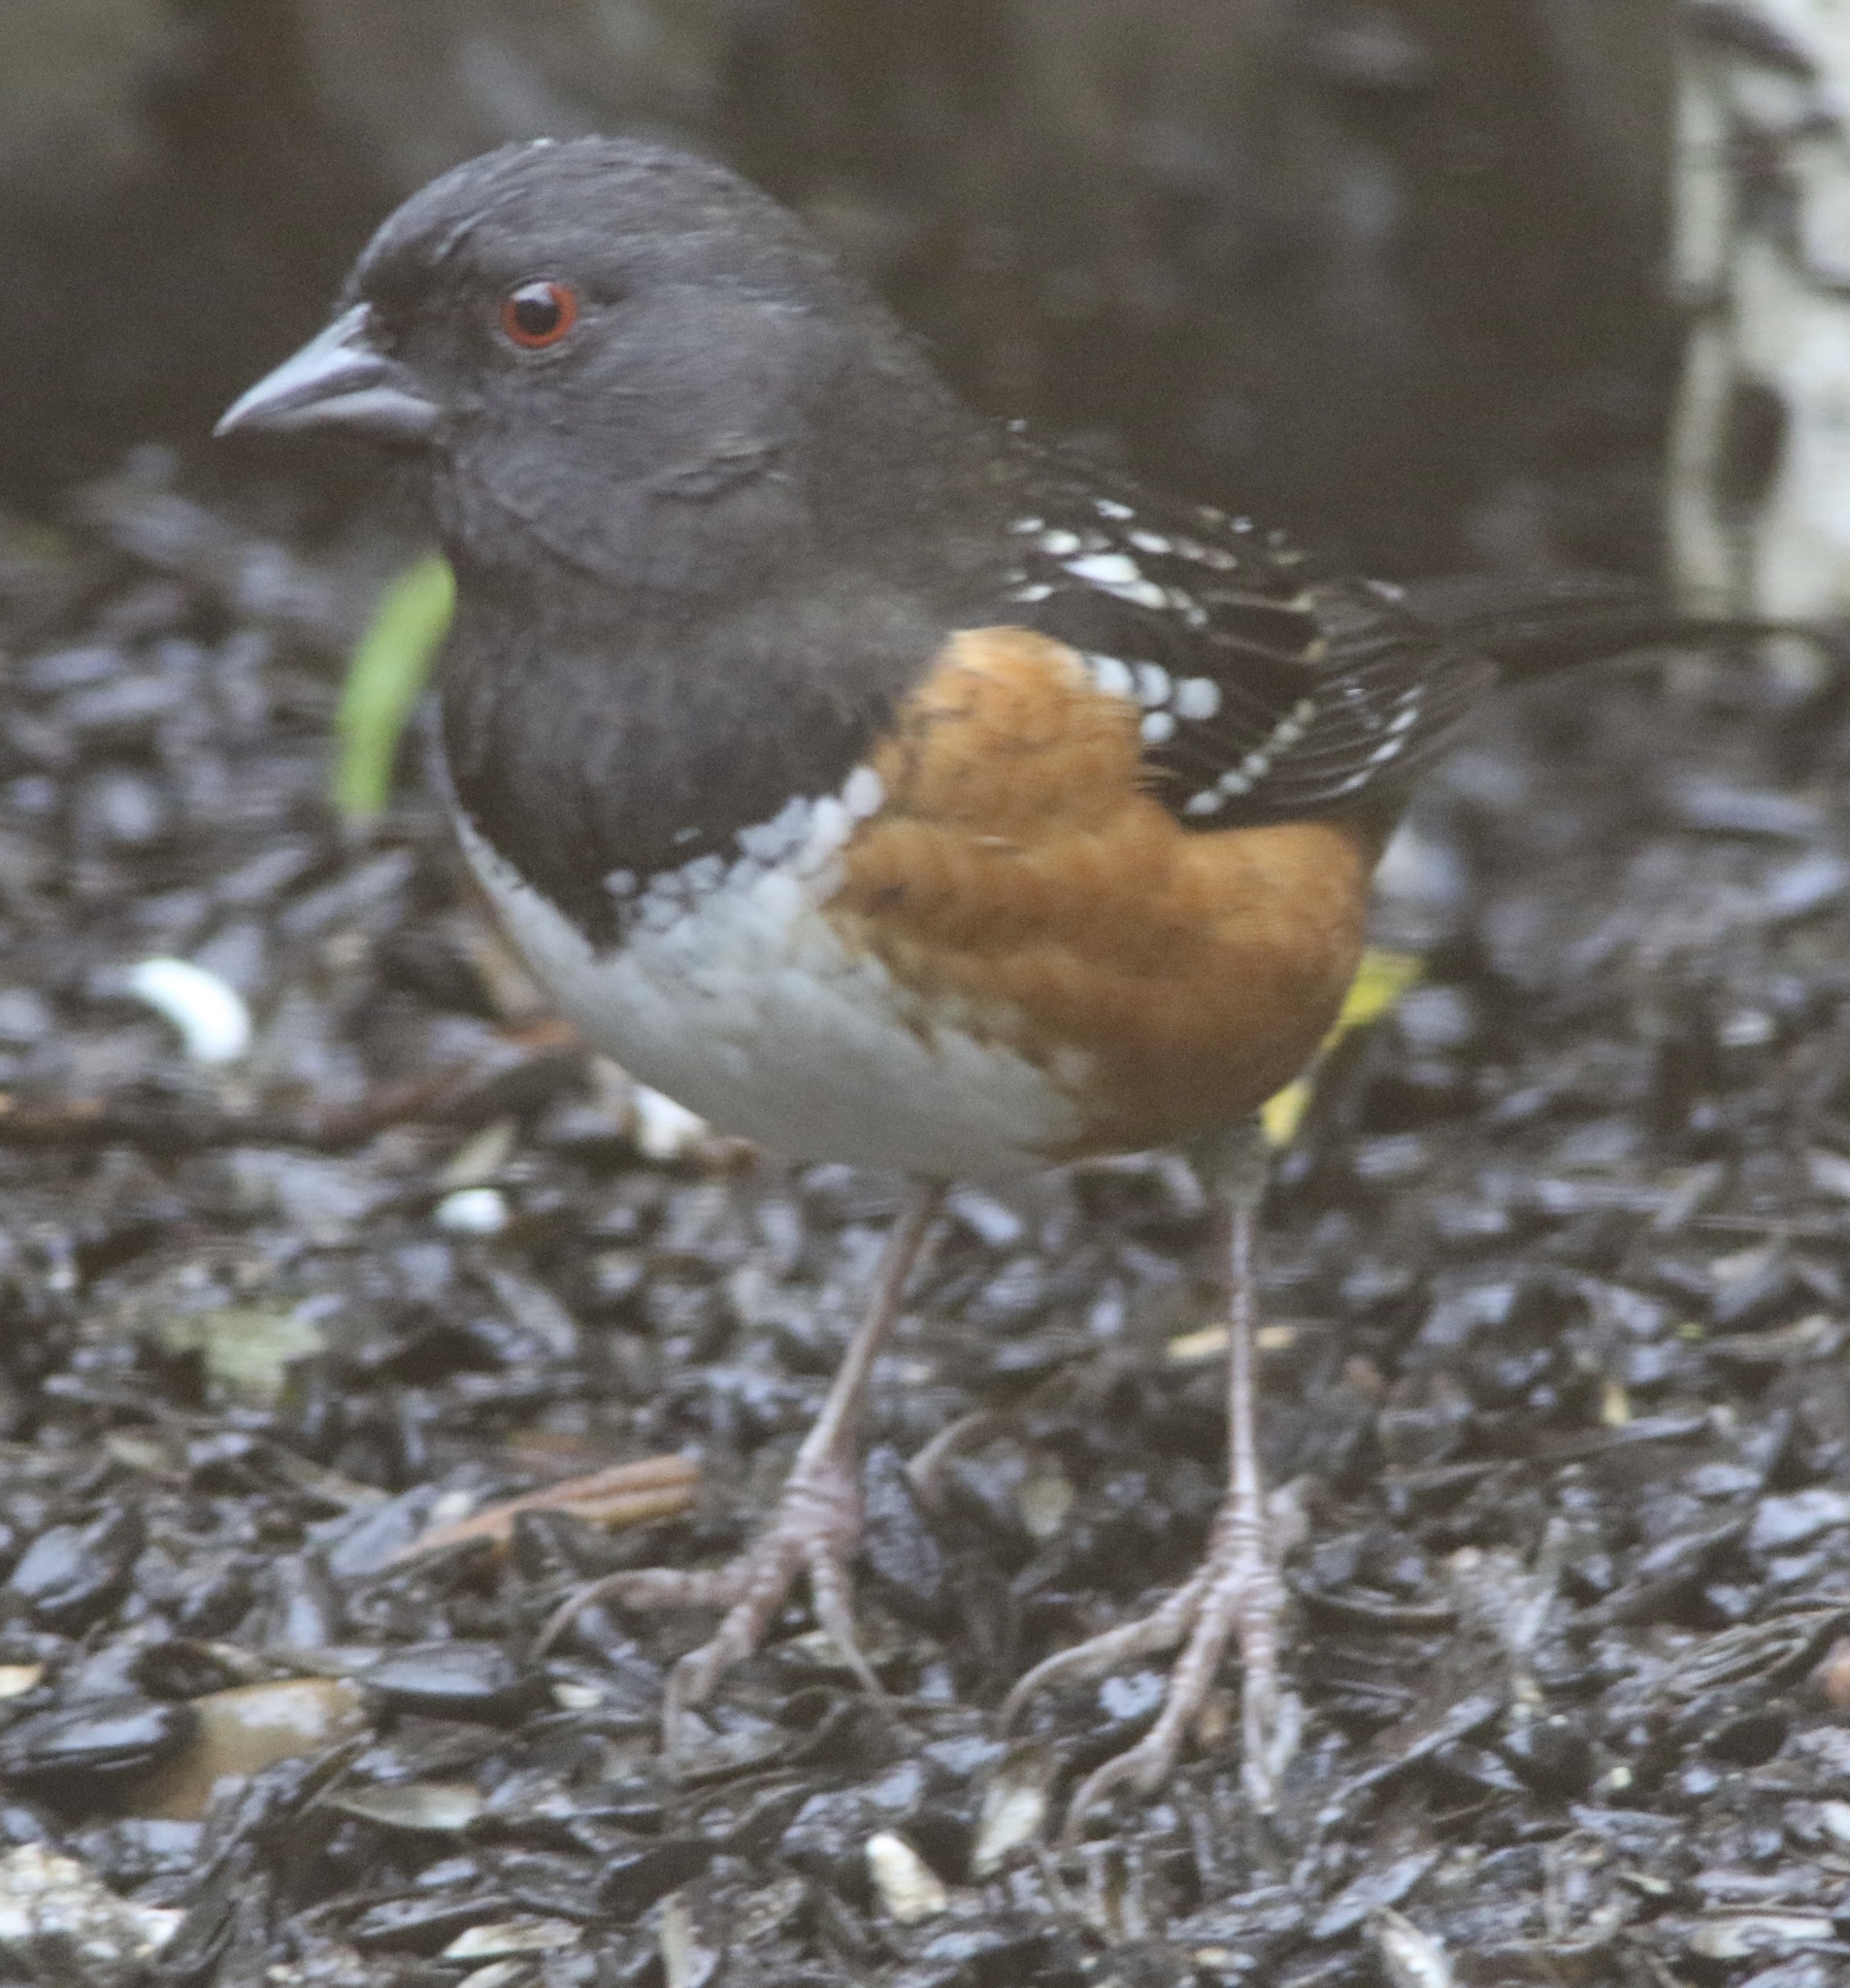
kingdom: Animalia
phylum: Chordata
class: Aves
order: Passeriformes
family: Passerellidae
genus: Pipilo
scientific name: Pipilo maculatus
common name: Spotted towhee
